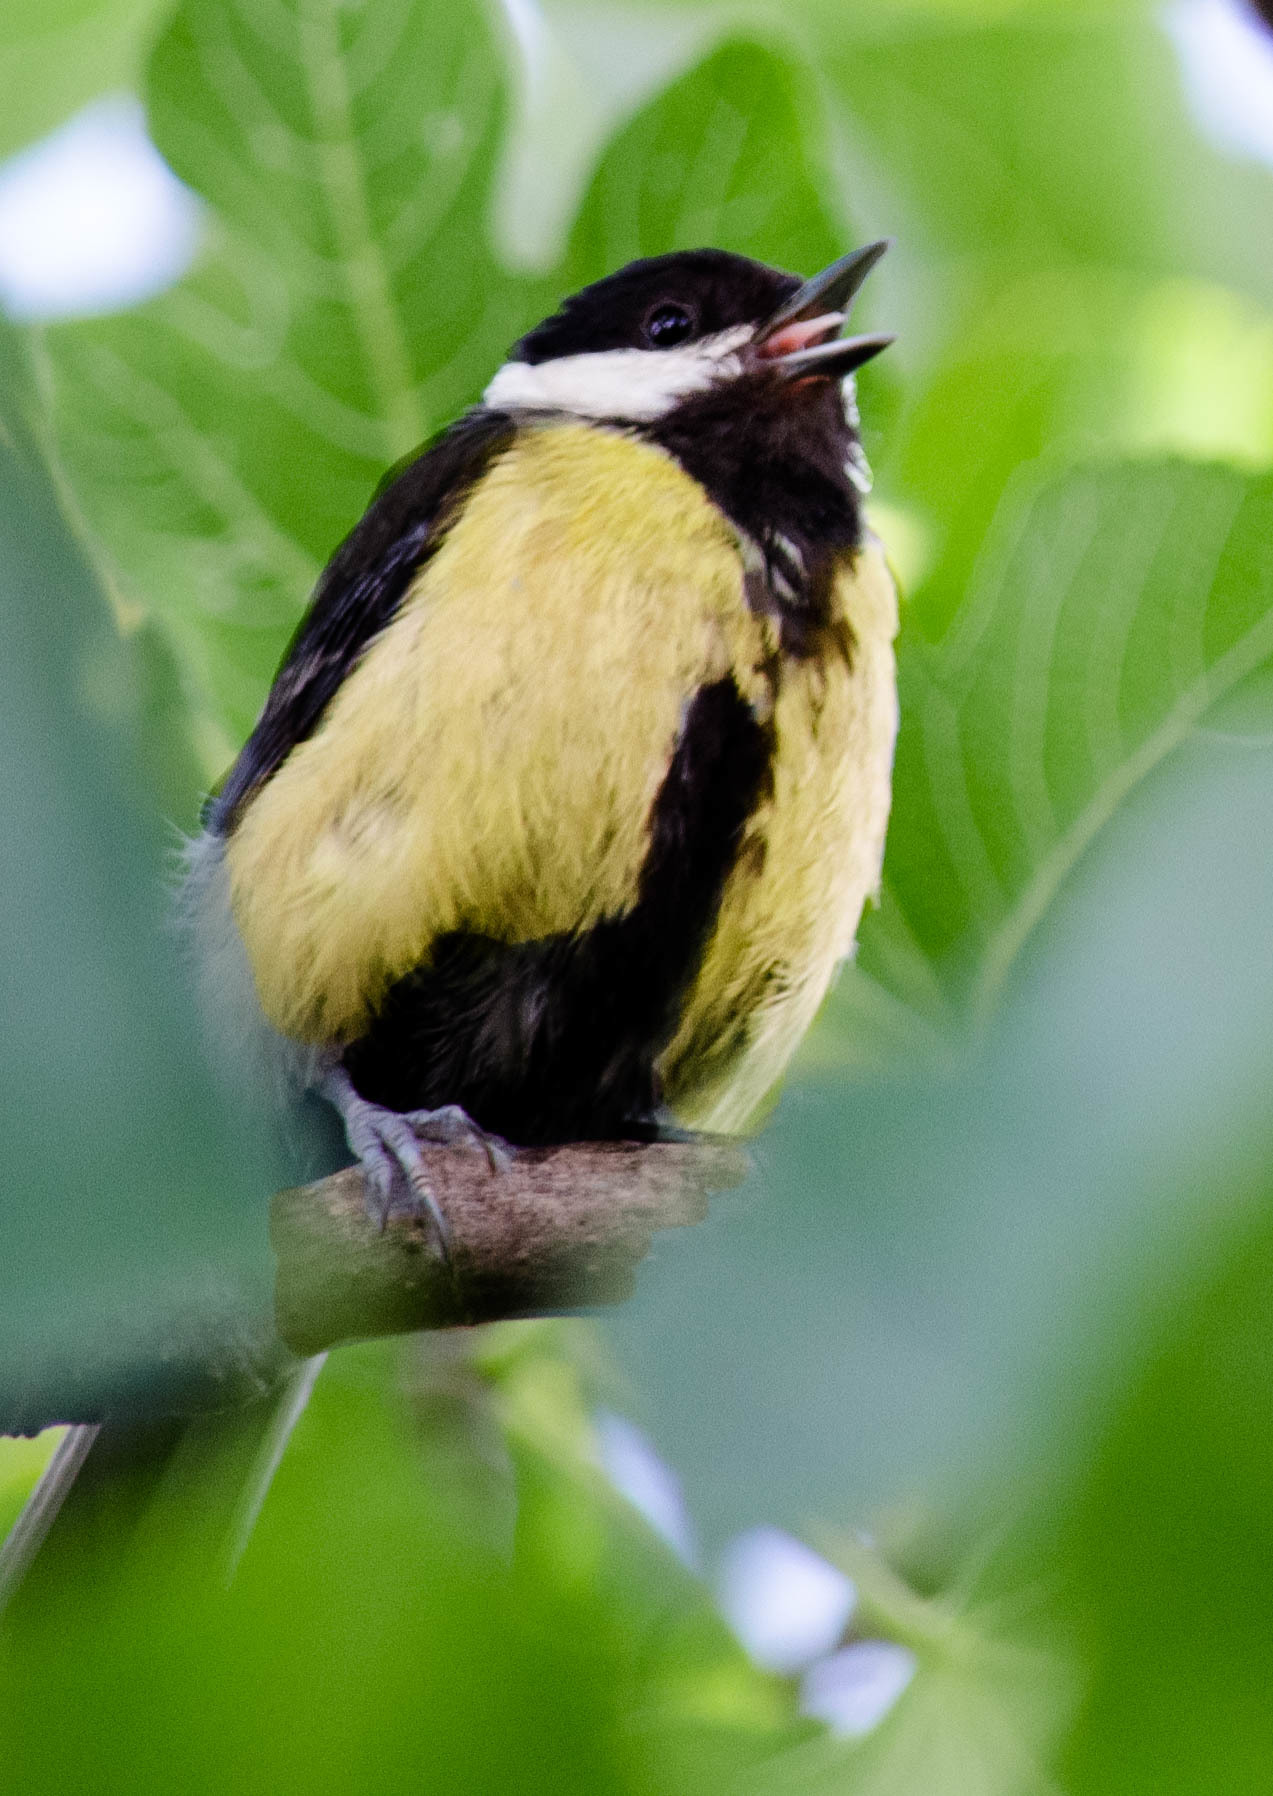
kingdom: Animalia
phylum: Chordata
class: Aves
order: Passeriformes
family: Paridae
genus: Parus
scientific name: Parus major
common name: Great tit
